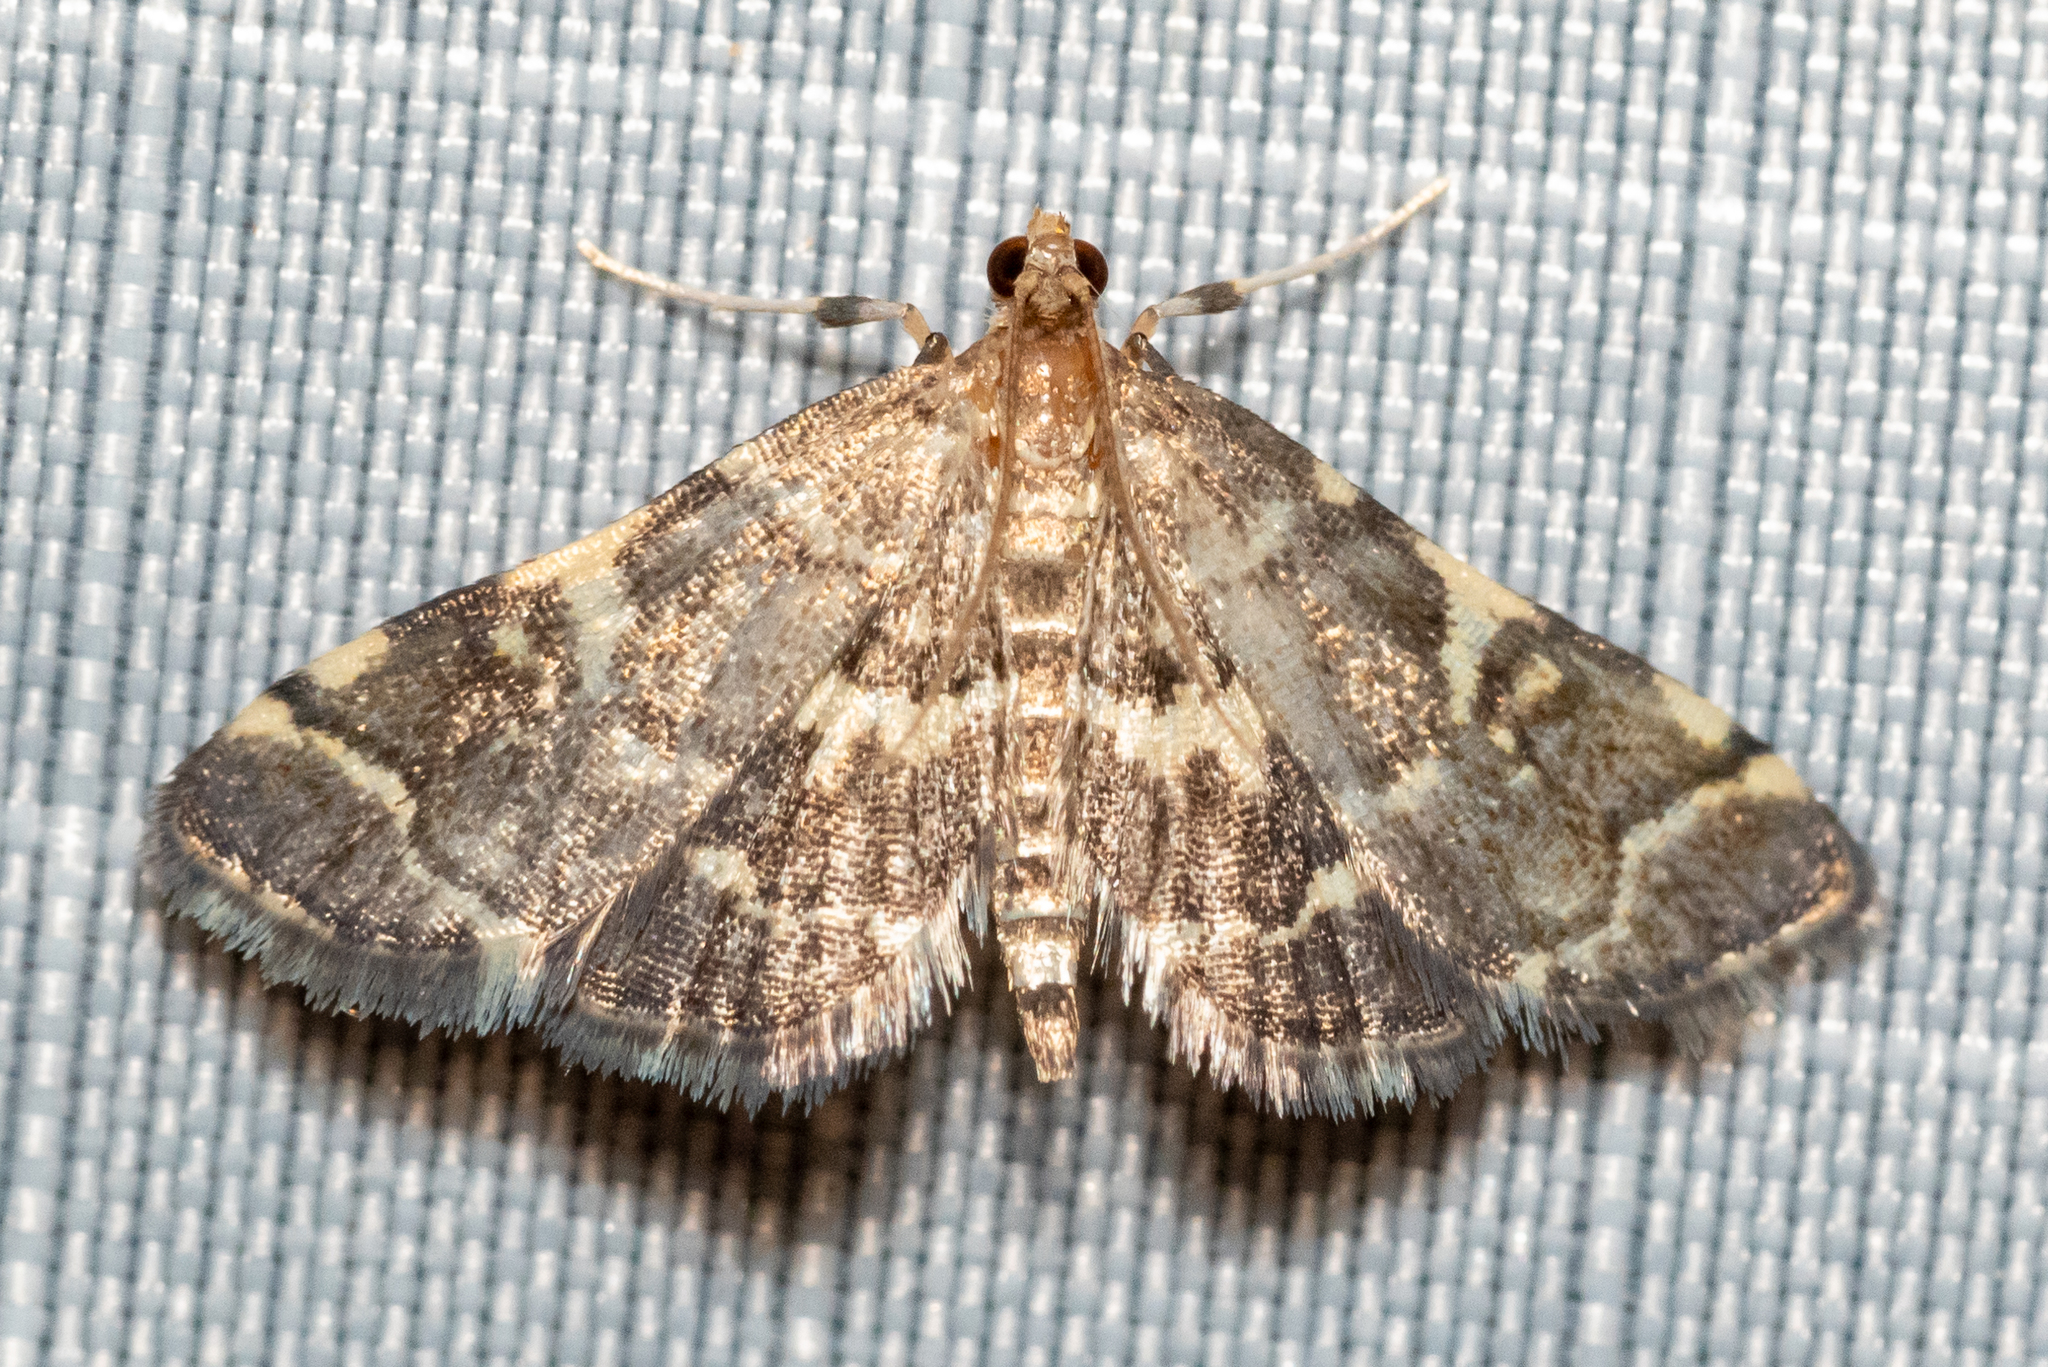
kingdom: Animalia
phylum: Arthropoda
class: Insecta
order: Lepidoptera
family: Crambidae
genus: Anageshna
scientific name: Anageshna primordialis
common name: Yellow-spotted webworm moth
